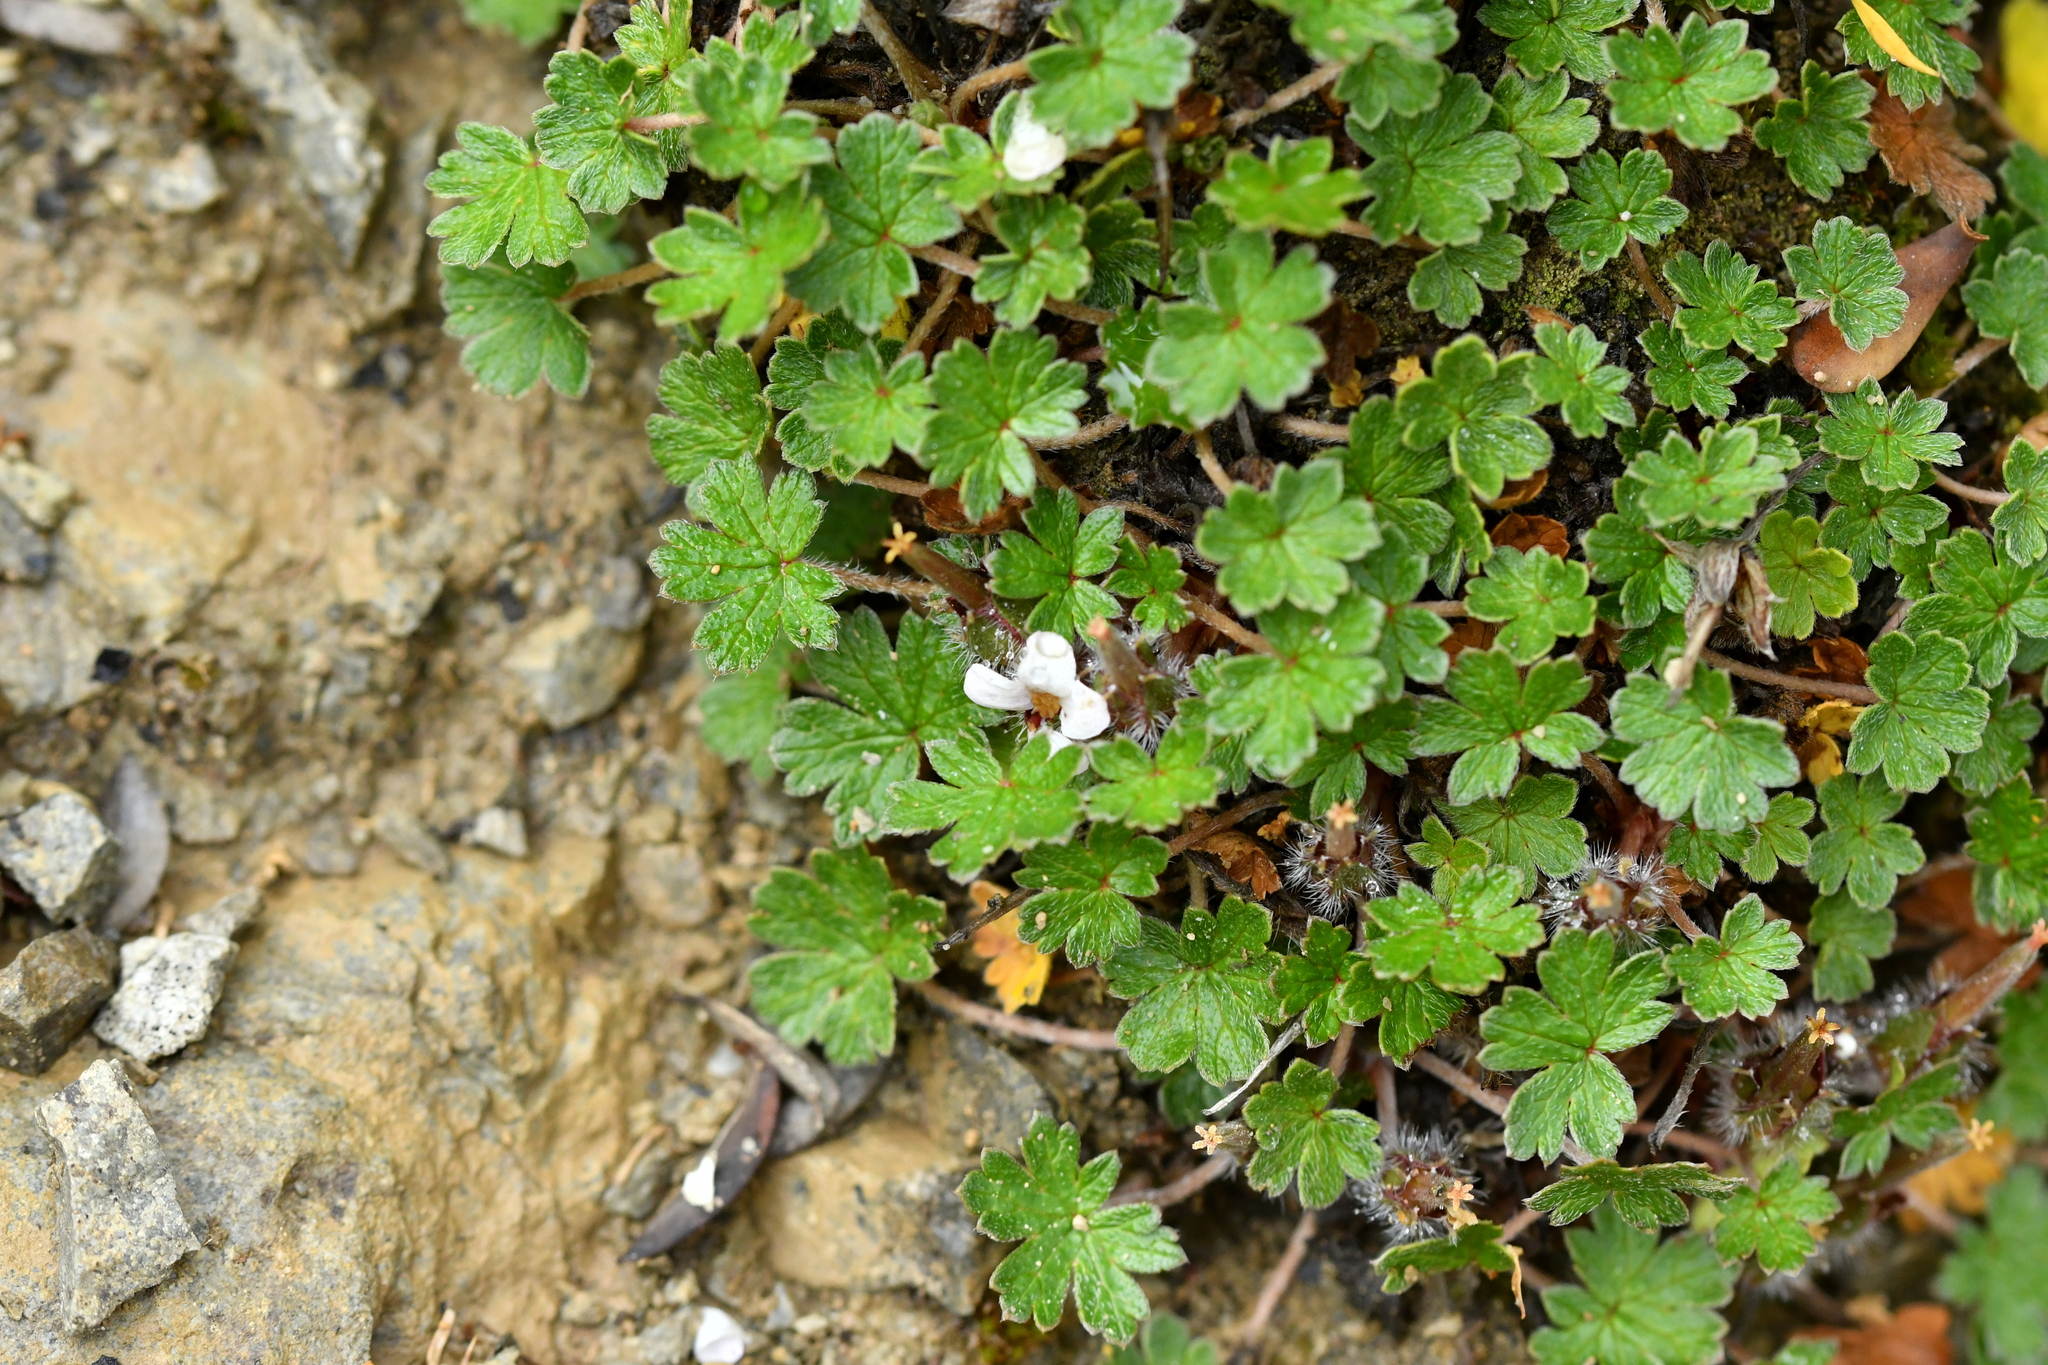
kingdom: Plantae
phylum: Tracheophyta
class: Magnoliopsida
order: Geraniales
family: Geraniaceae
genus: Geranium
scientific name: Geranium brevicaule
